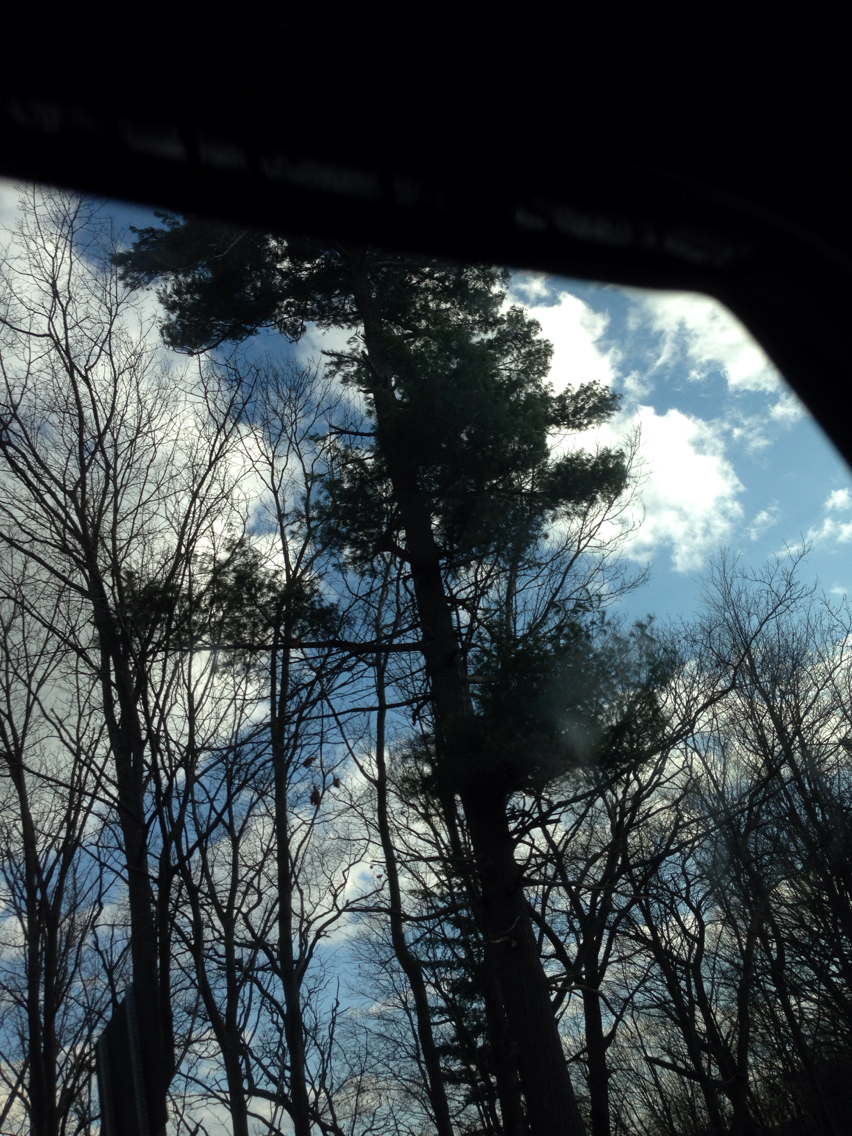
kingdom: Plantae
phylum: Tracheophyta
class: Pinopsida
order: Pinales
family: Pinaceae
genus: Pinus
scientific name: Pinus strobus
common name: Weymouth pine
